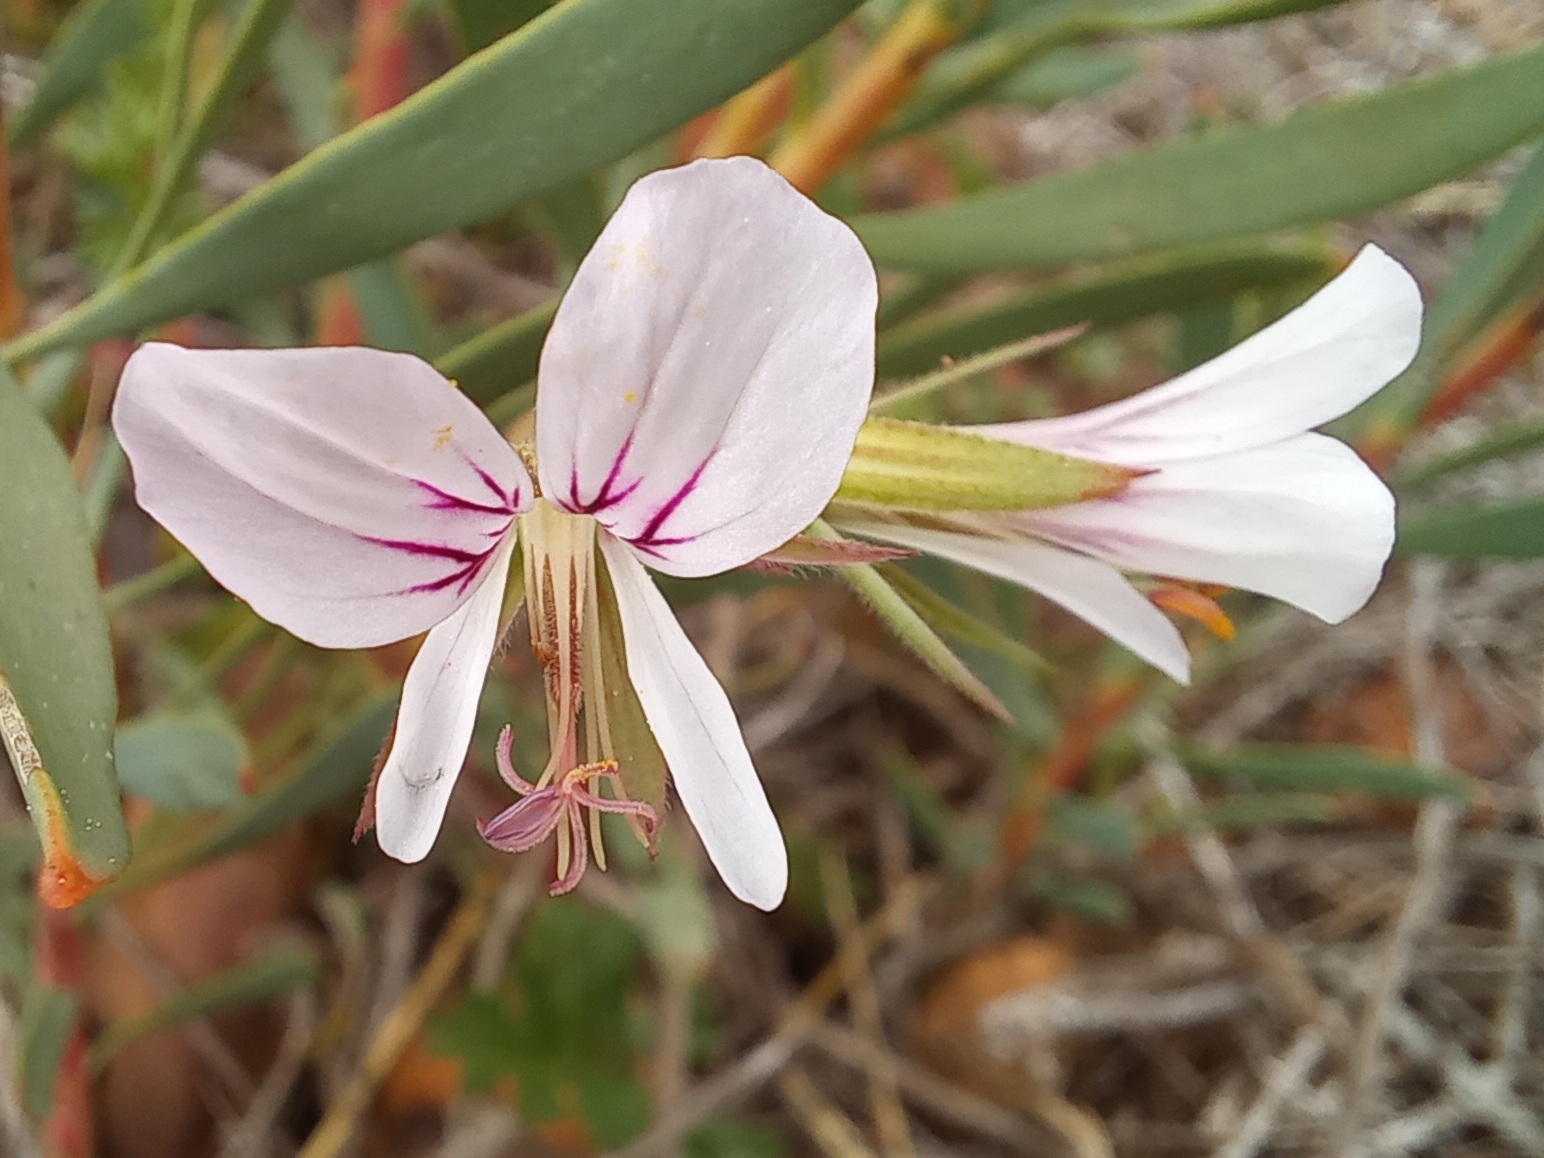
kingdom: Plantae
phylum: Tracheophyta
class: Magnoliopsida
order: Geraniales
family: Geraniaceae
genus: Pelargonium
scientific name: Pelargonium candicans
